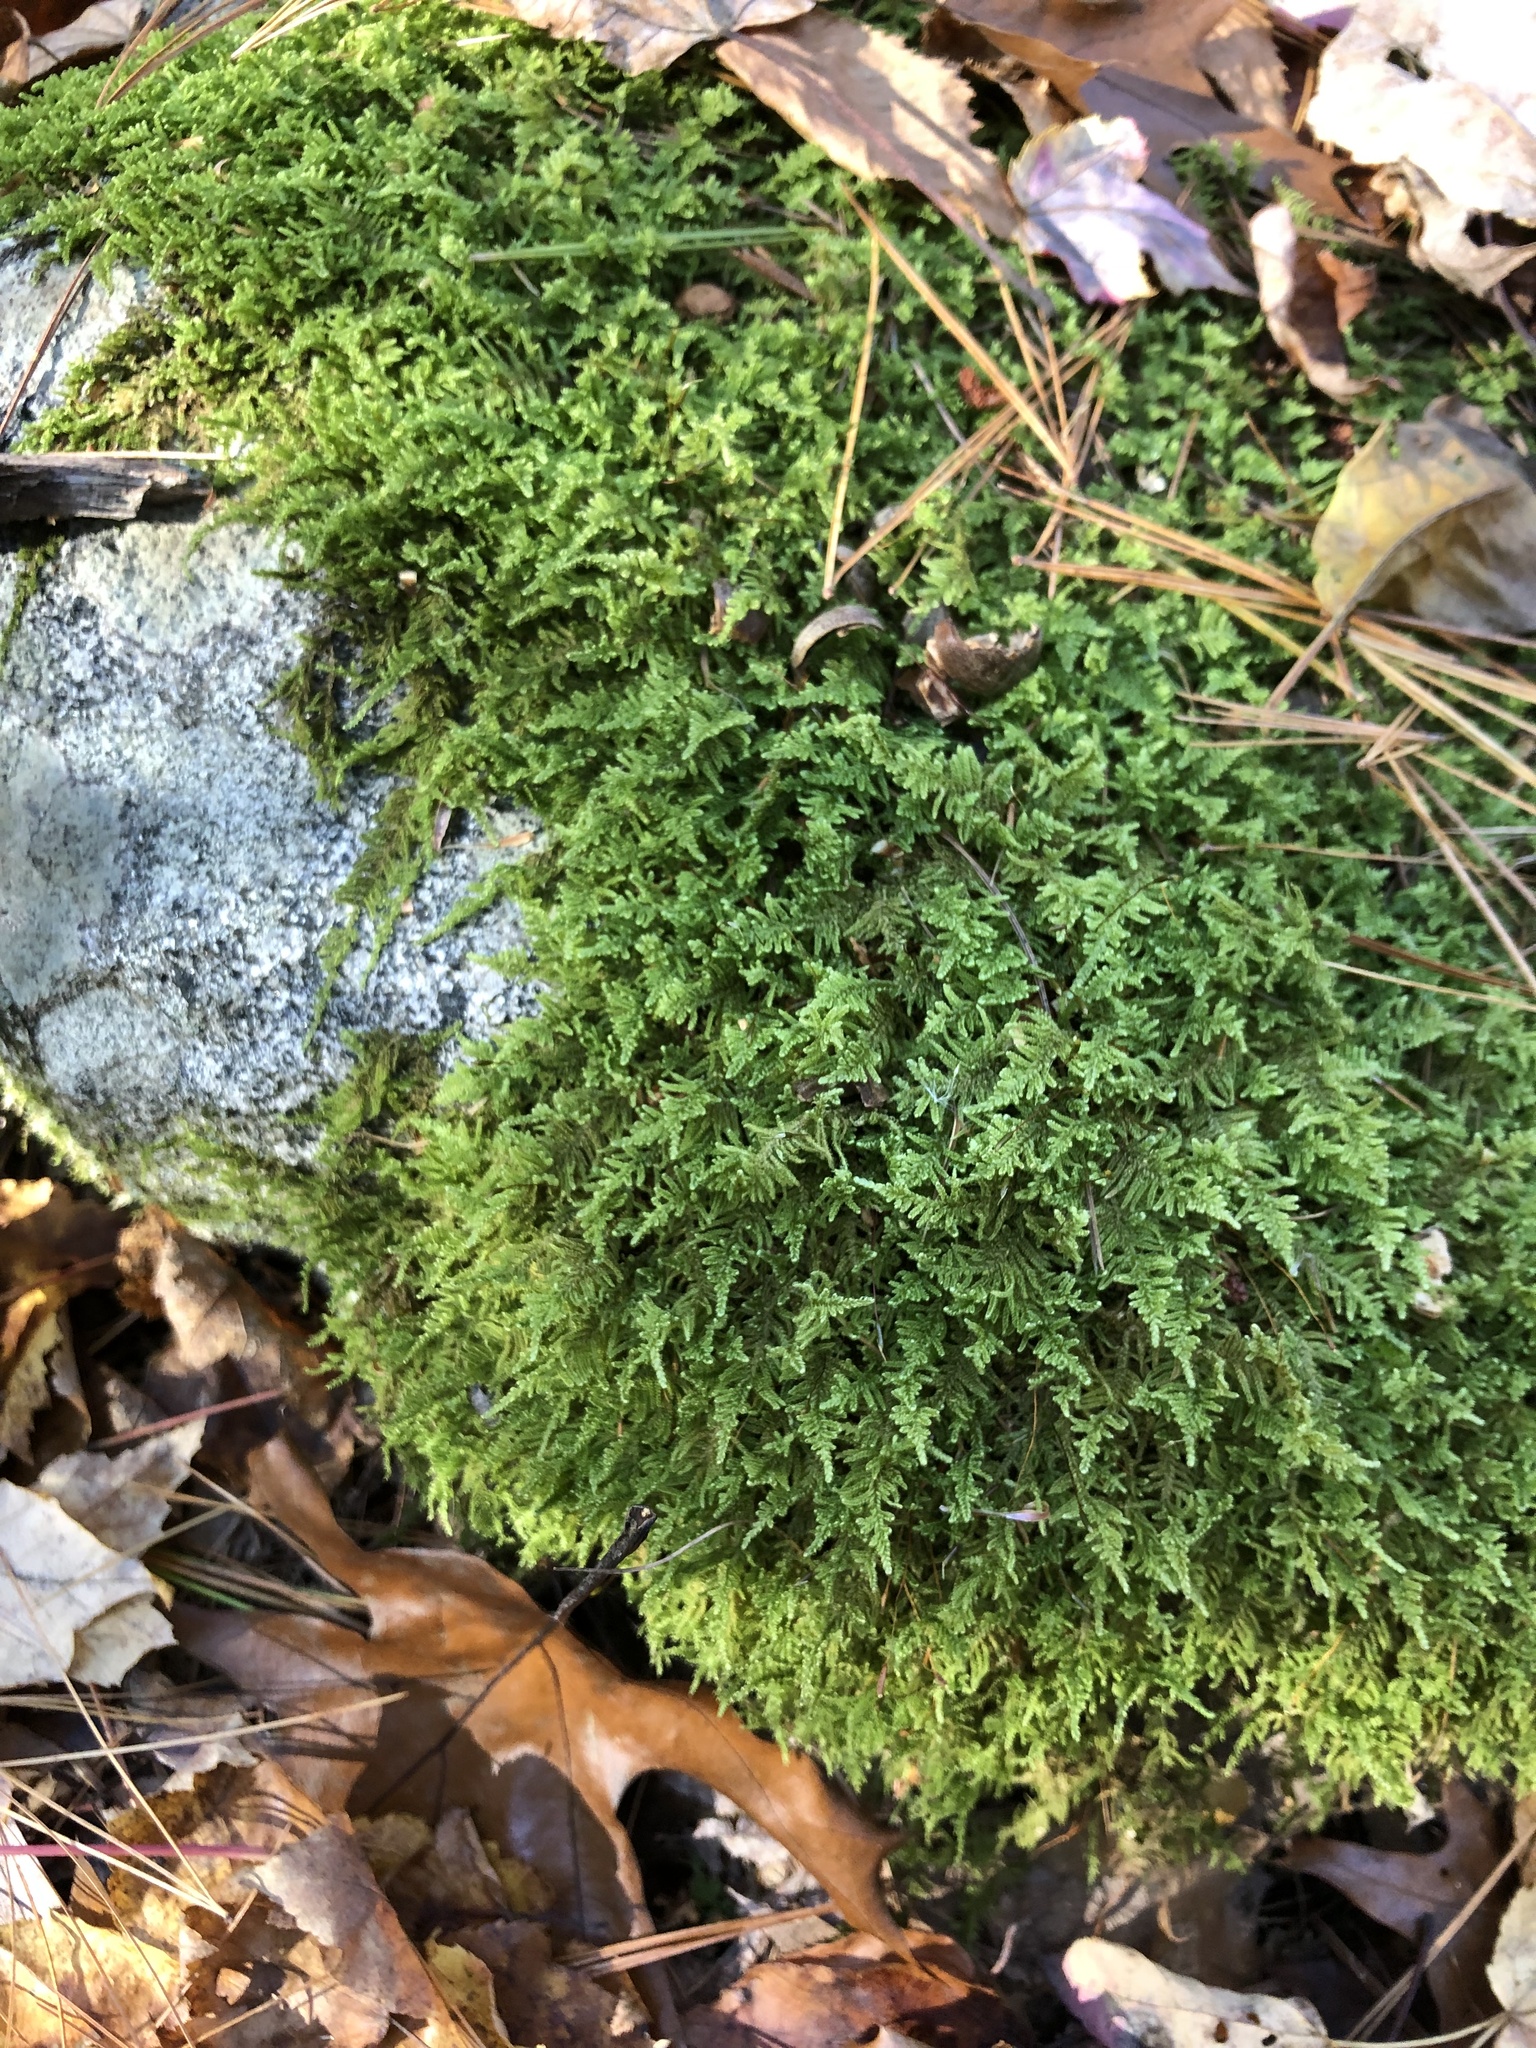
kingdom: Plantae
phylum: Bryophyta
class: Bryopsida
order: Hypnales
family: Callicladiaceae
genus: Callicladium
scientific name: Callicladium imponens
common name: Brocade moss
